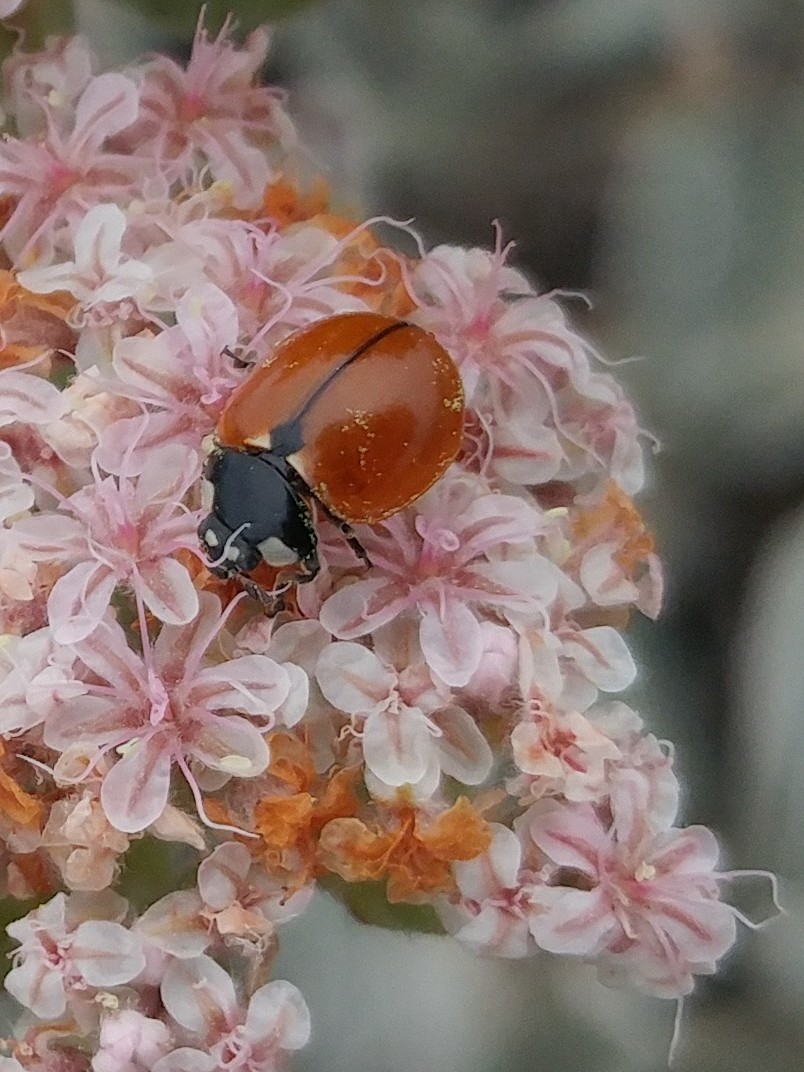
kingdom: Animalia
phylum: Arthropoda
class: Insecta
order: Coleoptera
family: Coccinellidae
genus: Coccinella
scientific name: Coccinella californica
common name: Lady beetle
